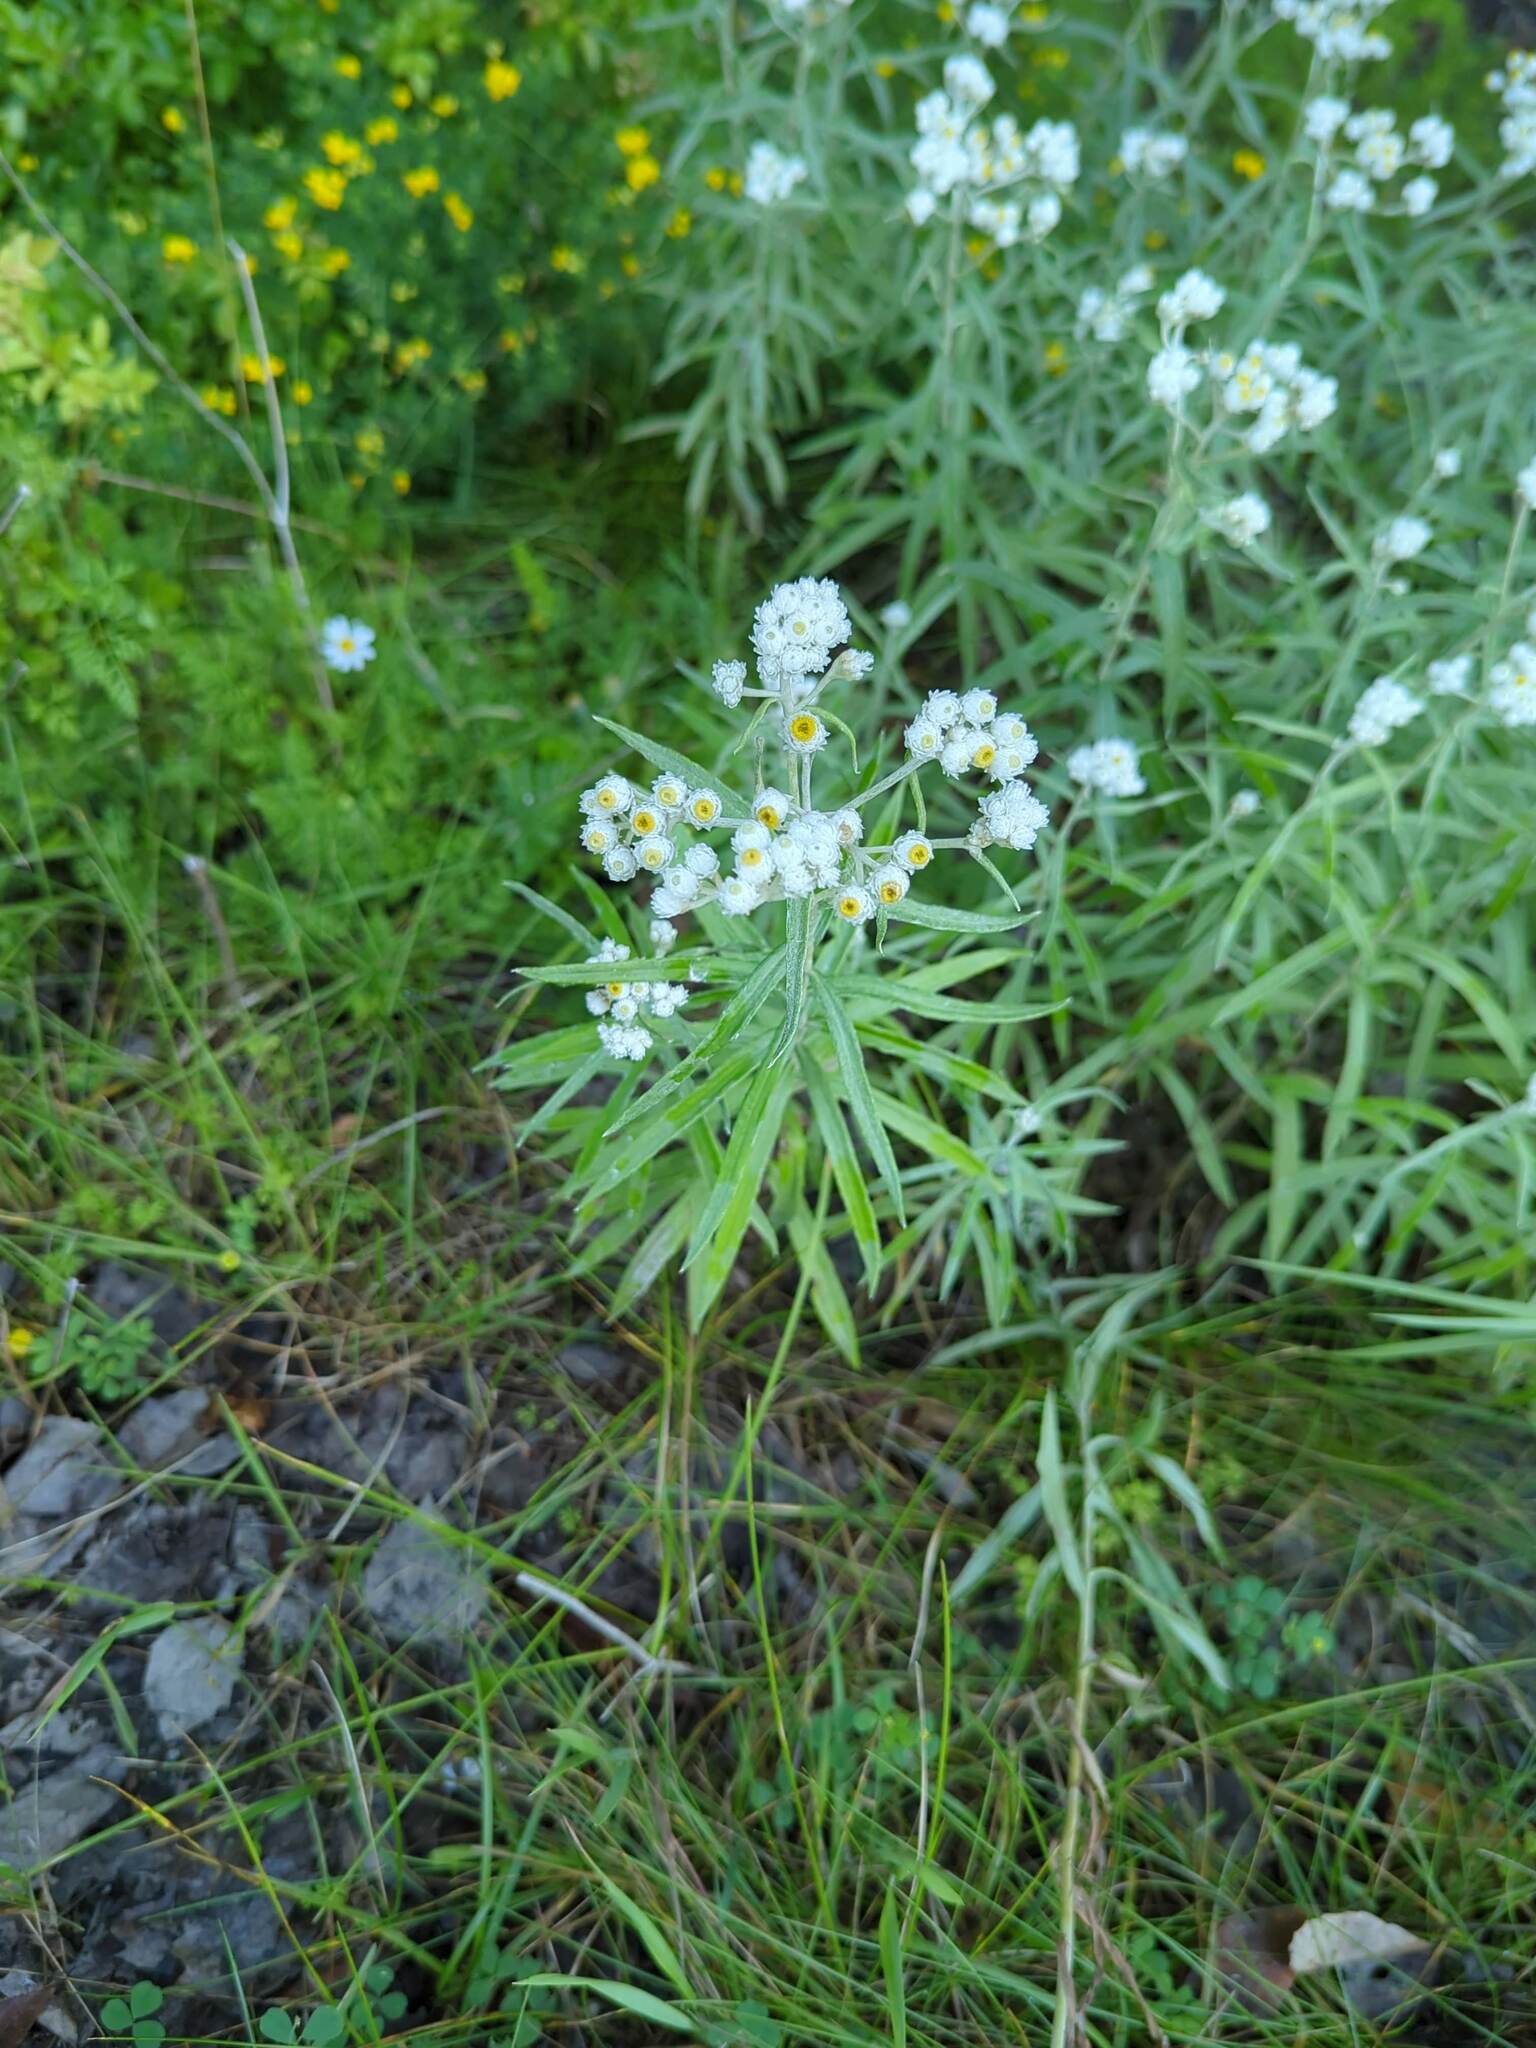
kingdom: Plantae
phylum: Tracheophyta
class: Magnoliopsida
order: Asterales
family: Asteraceae
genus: Anaphalis
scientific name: Anaphalis margaritacea
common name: Pearly everlasting
